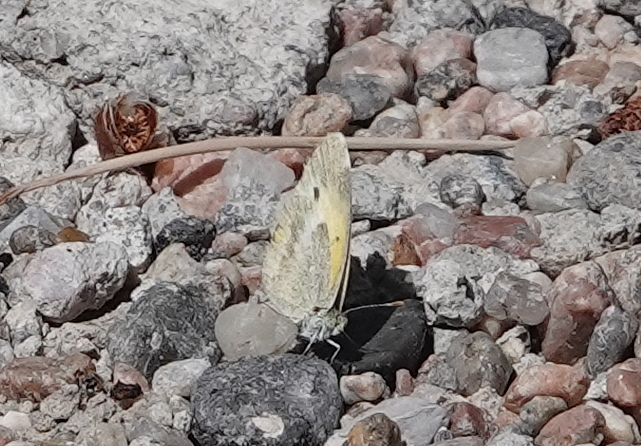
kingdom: Animalia
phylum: Arthropoda
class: Insecta
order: Lepidoptera
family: Pieridae
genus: Nathalis
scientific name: Nathalis iole
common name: Dainty sulphur
